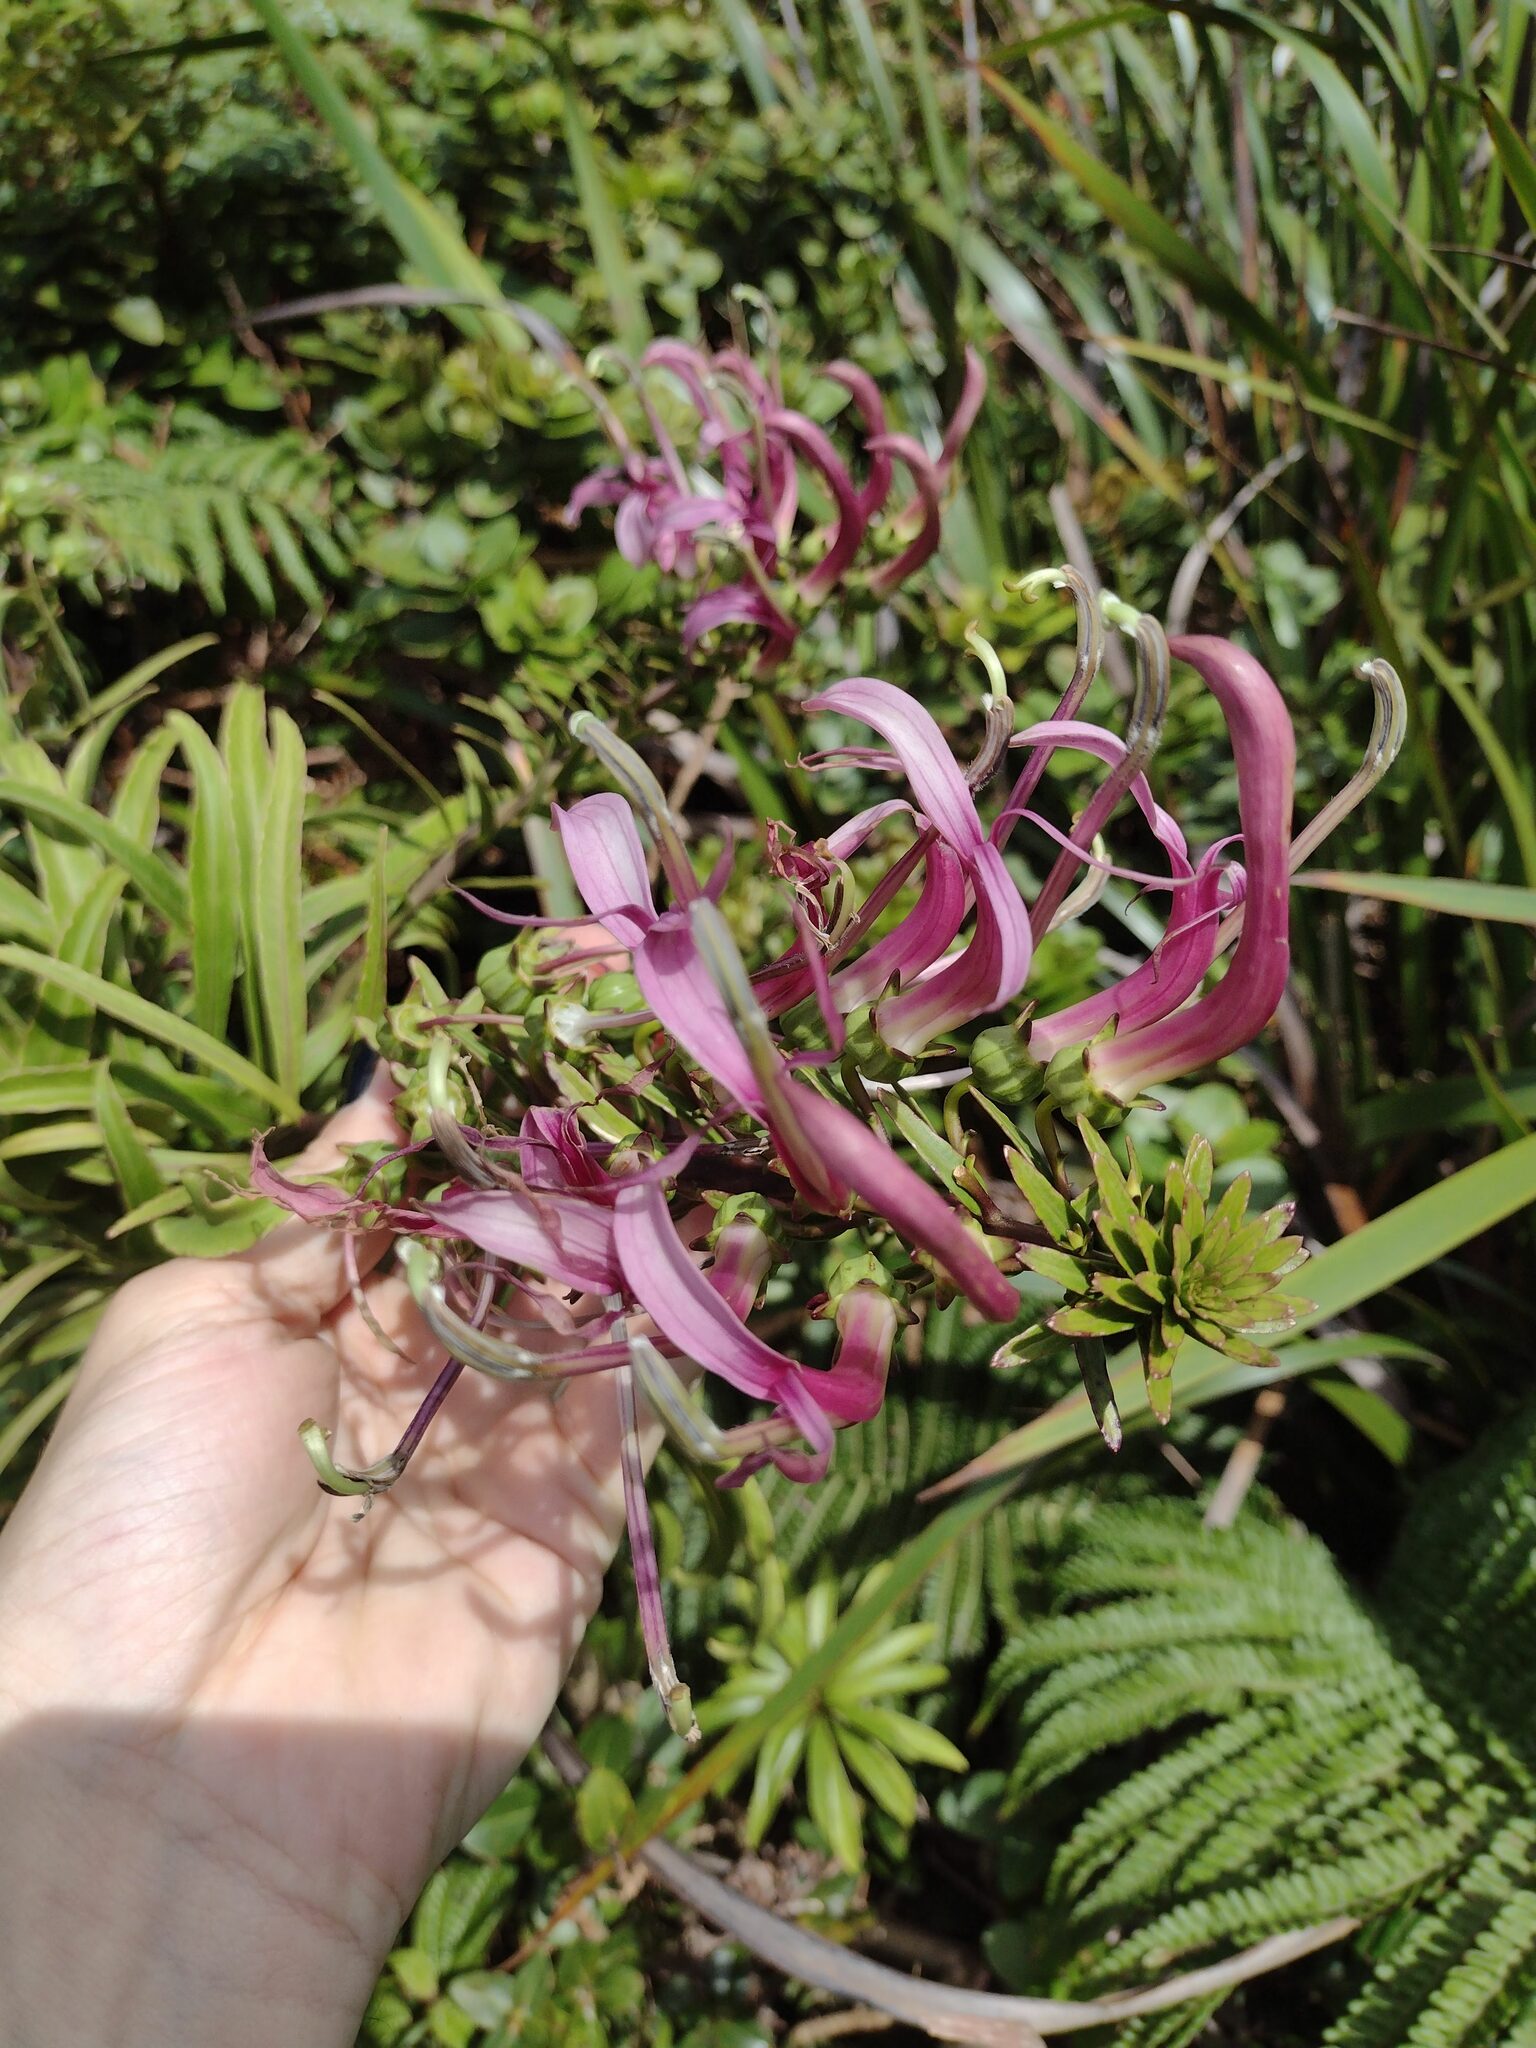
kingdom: Plantae
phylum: Tracheophyta
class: Magnoliopsida
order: Asterales
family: Campanulaceae
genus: Trematolobelia
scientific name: Trematolobelia macrostachys
